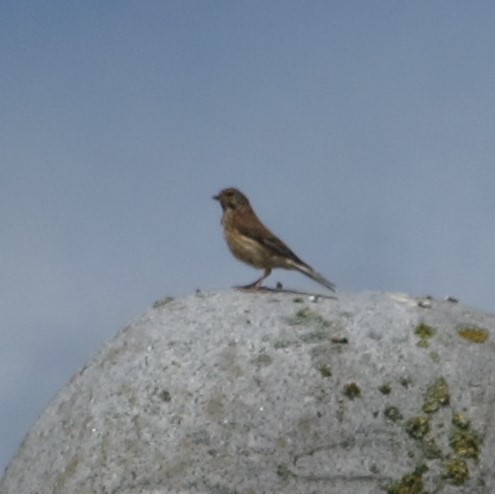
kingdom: Animalia
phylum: Chordata
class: Aves
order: Passeriformes
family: Fringillidae
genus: Linaria
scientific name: Linaria cannabina
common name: Common linnet
